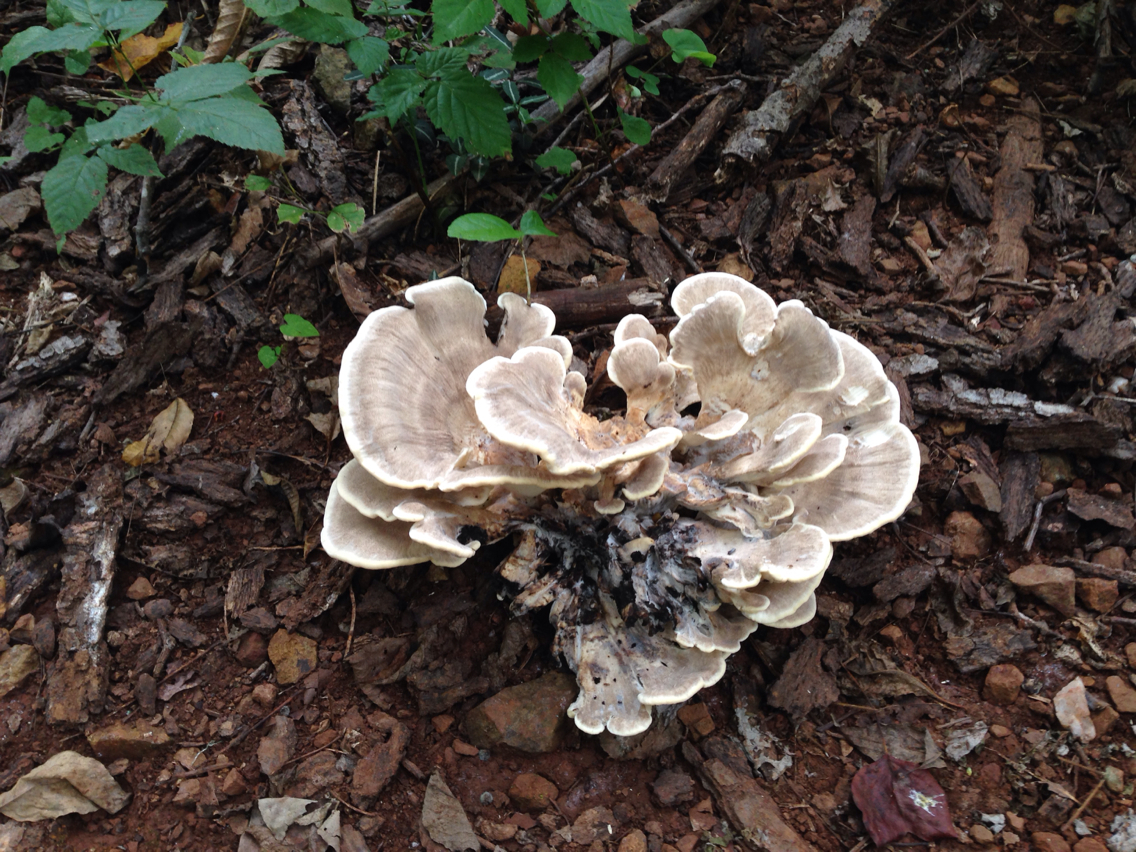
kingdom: Fungi
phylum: Basidiomycota
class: Agaricomycetes
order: Polyporales
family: Meripilaceae
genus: Meripilus
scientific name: Meripilus sumstinei
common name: Black-staining polypore
